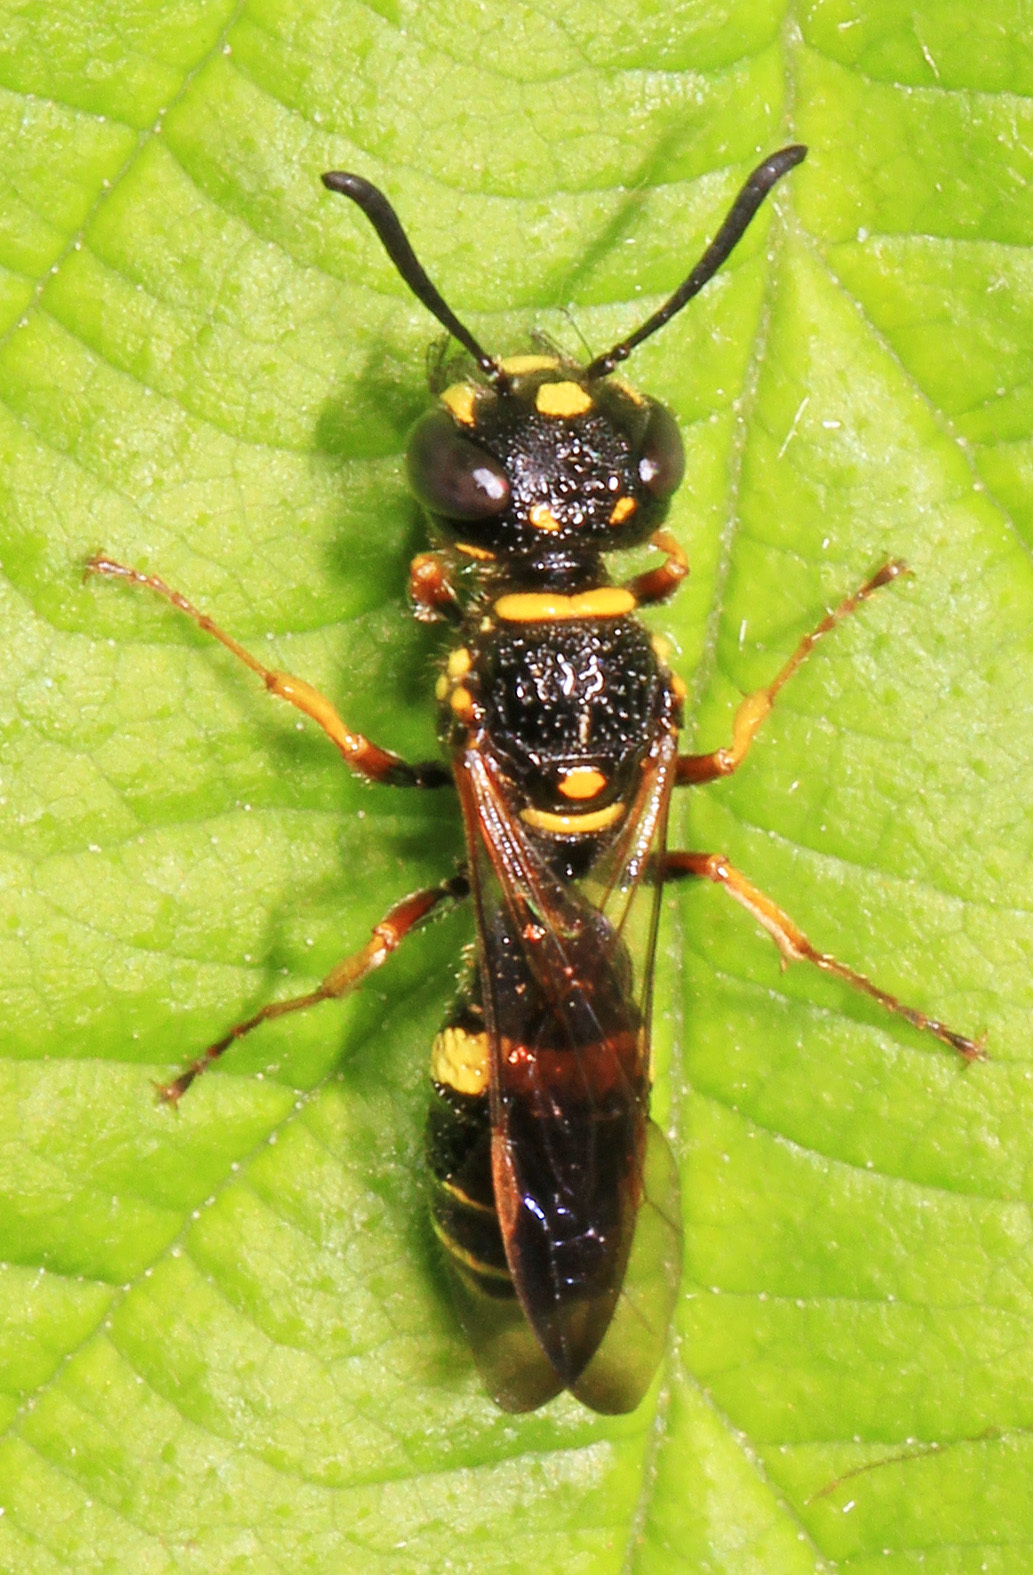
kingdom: Animalia
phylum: Arthropoda
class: Insecta
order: Hymenoptera
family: Crabronidae
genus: Philanthus
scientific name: Philanthus gibbosus
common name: Humped beewolf
